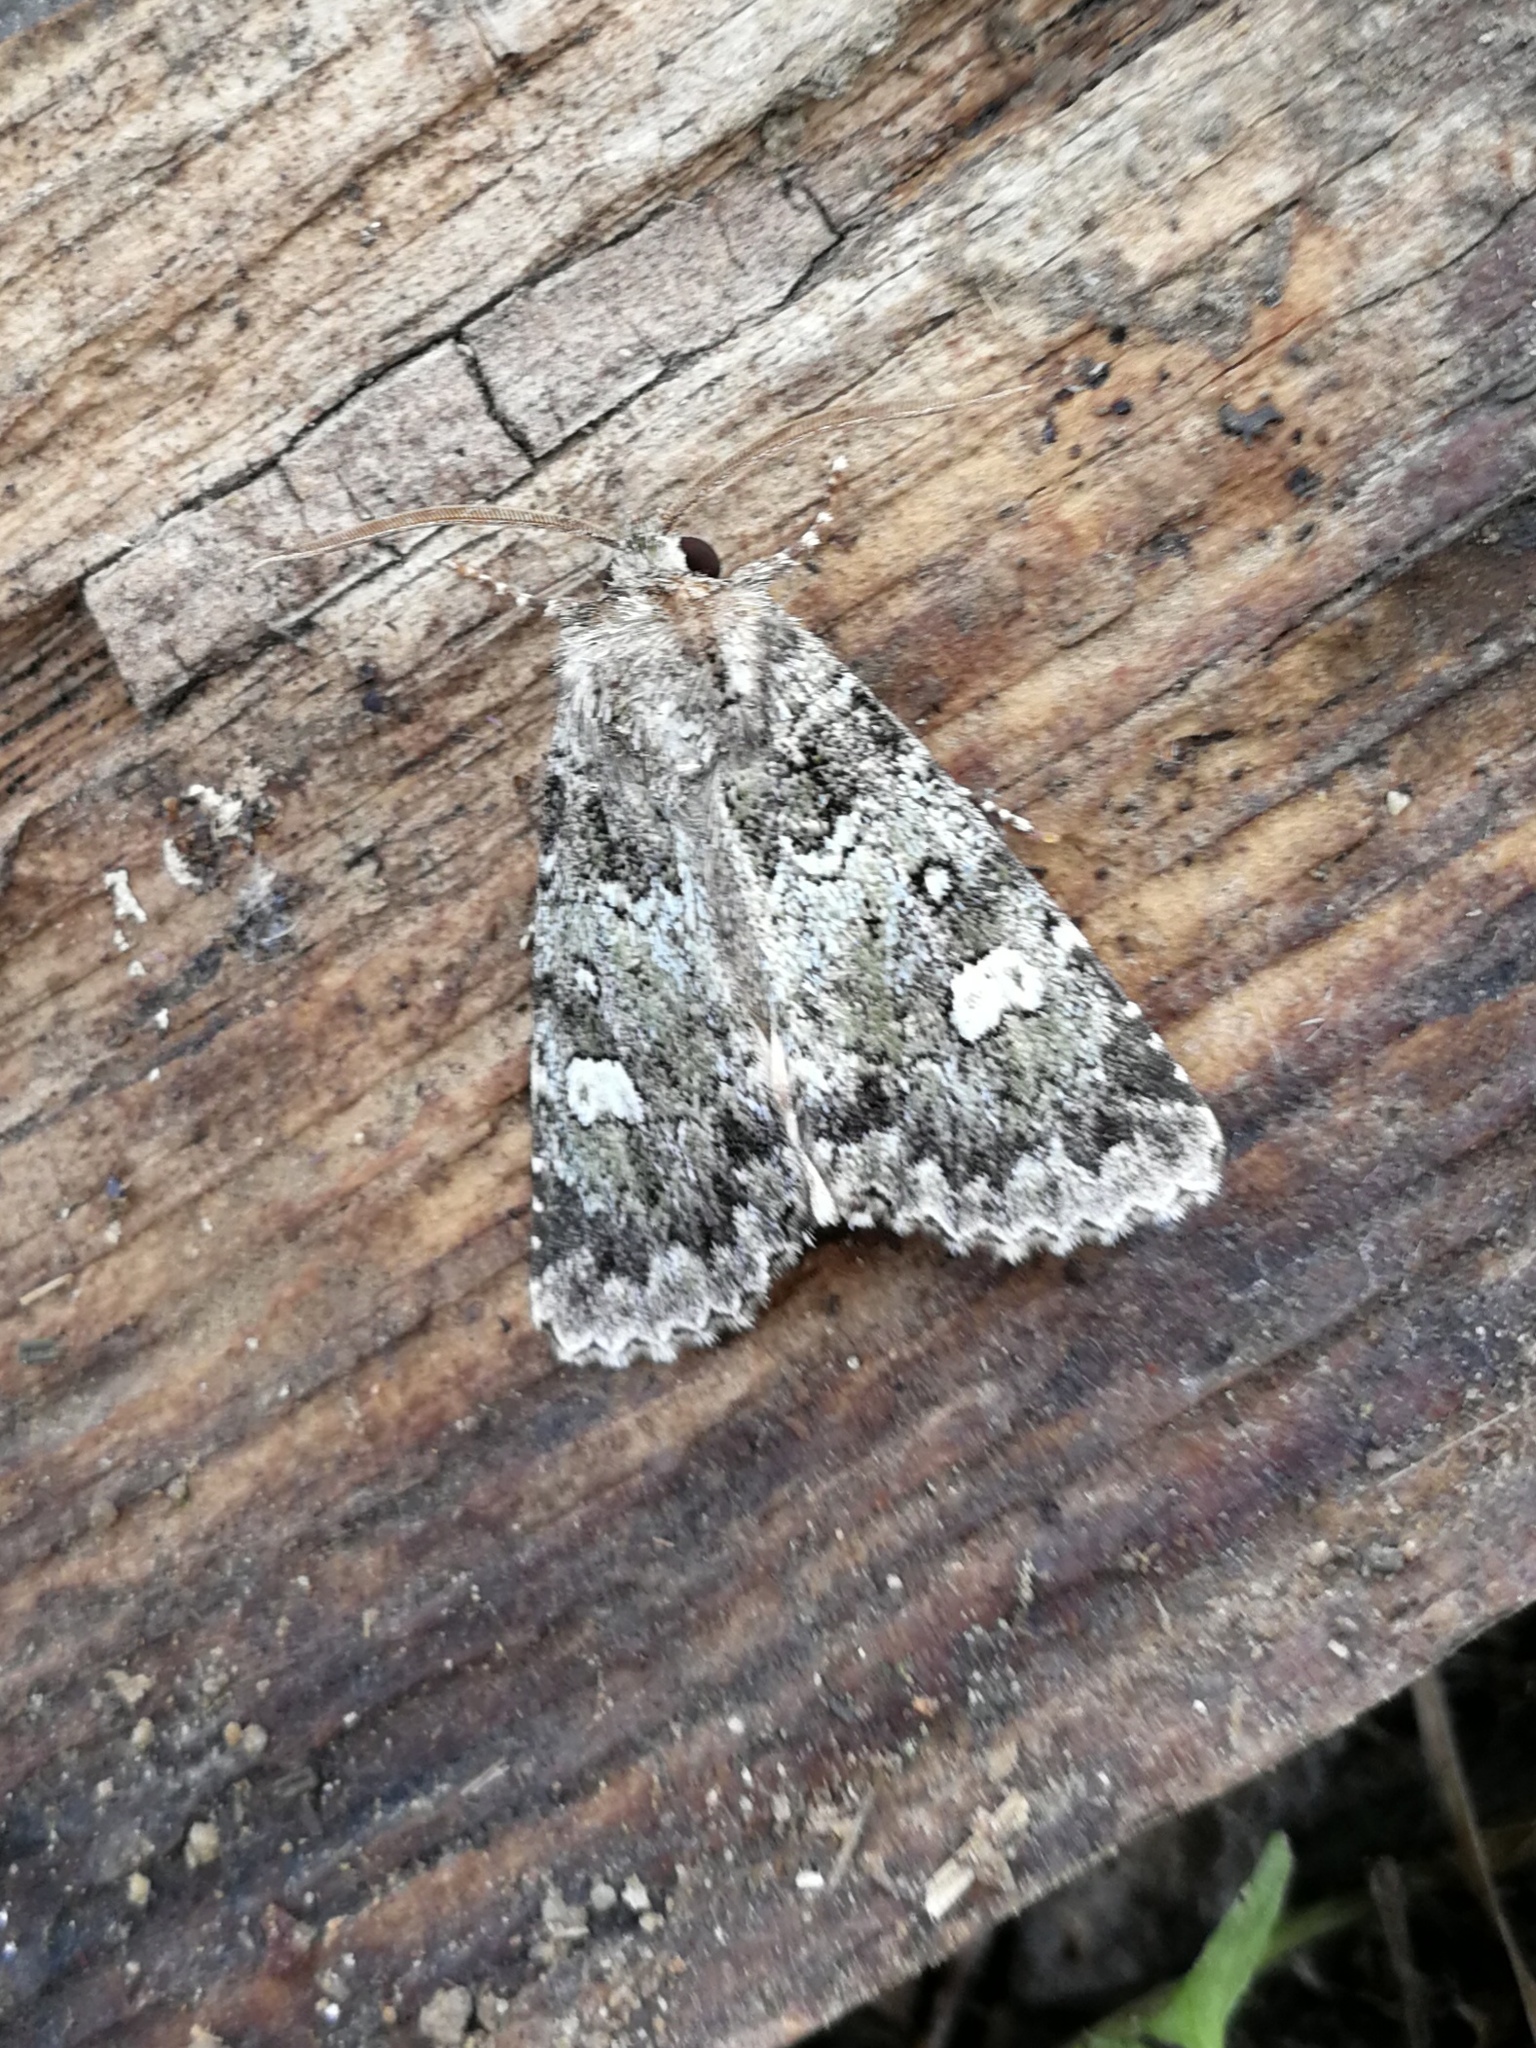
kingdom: Animalia
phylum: Arthropoda
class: Insecta
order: Lepidoptera
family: Noctuidae
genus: Olivenebula
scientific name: Olivenebula xanthochloris
